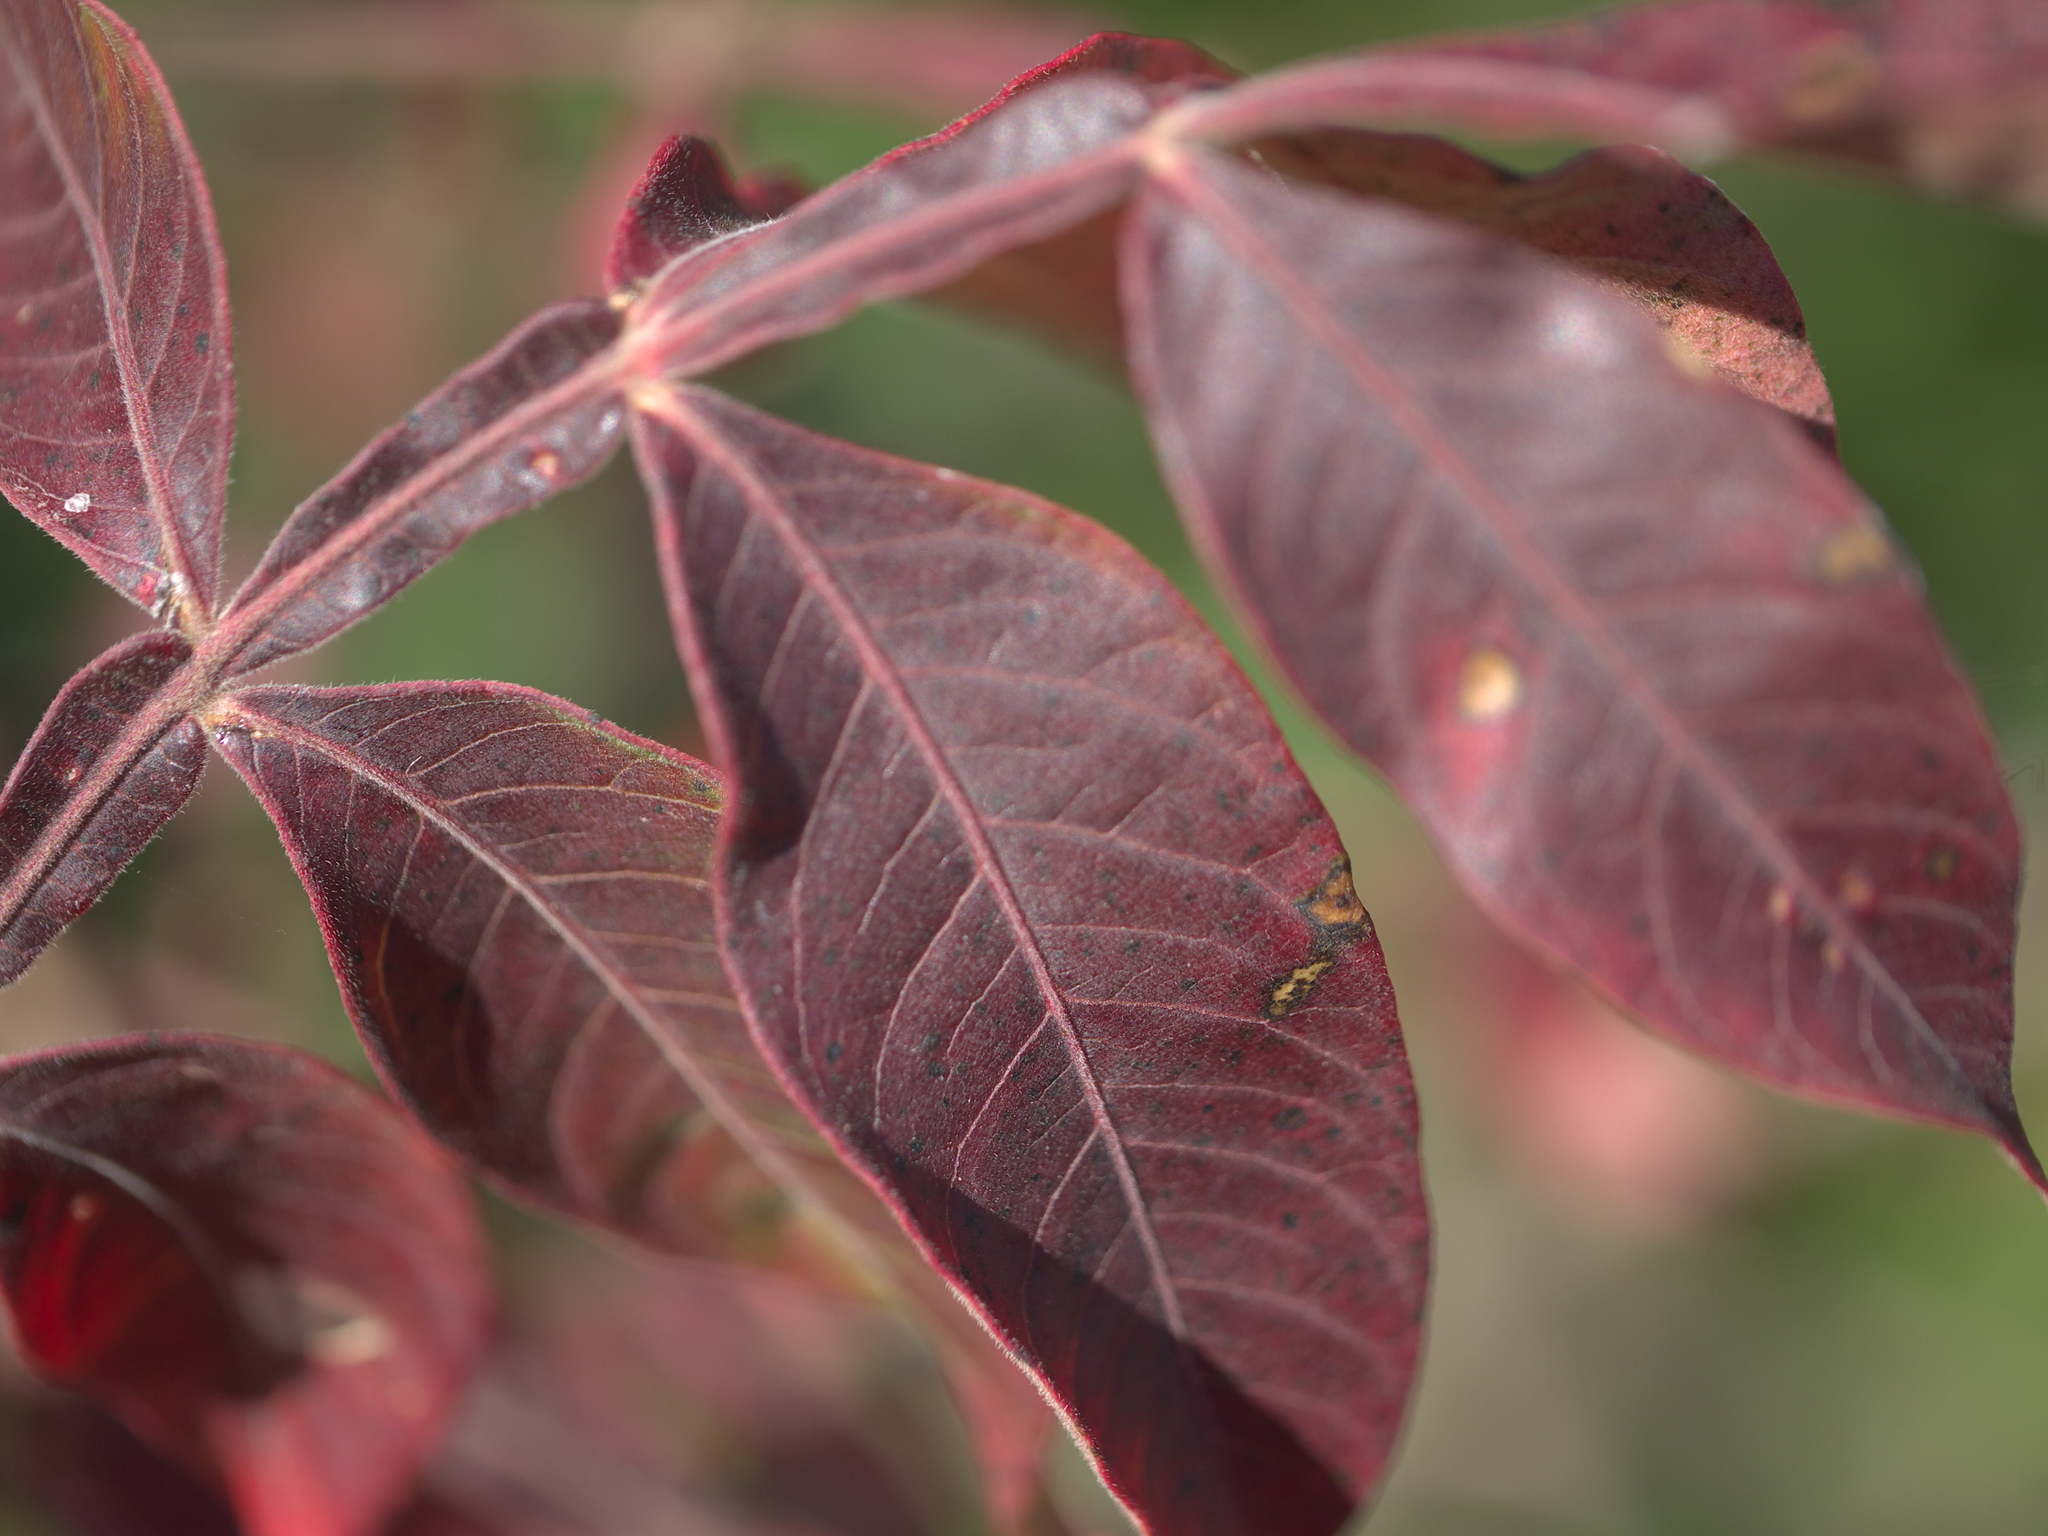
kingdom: Plantae
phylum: Tracheophyta
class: Magnoliopsida
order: Sapindales
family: Anacardiaceae
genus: Rhus
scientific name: Rhus copallina
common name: Shining sumac
